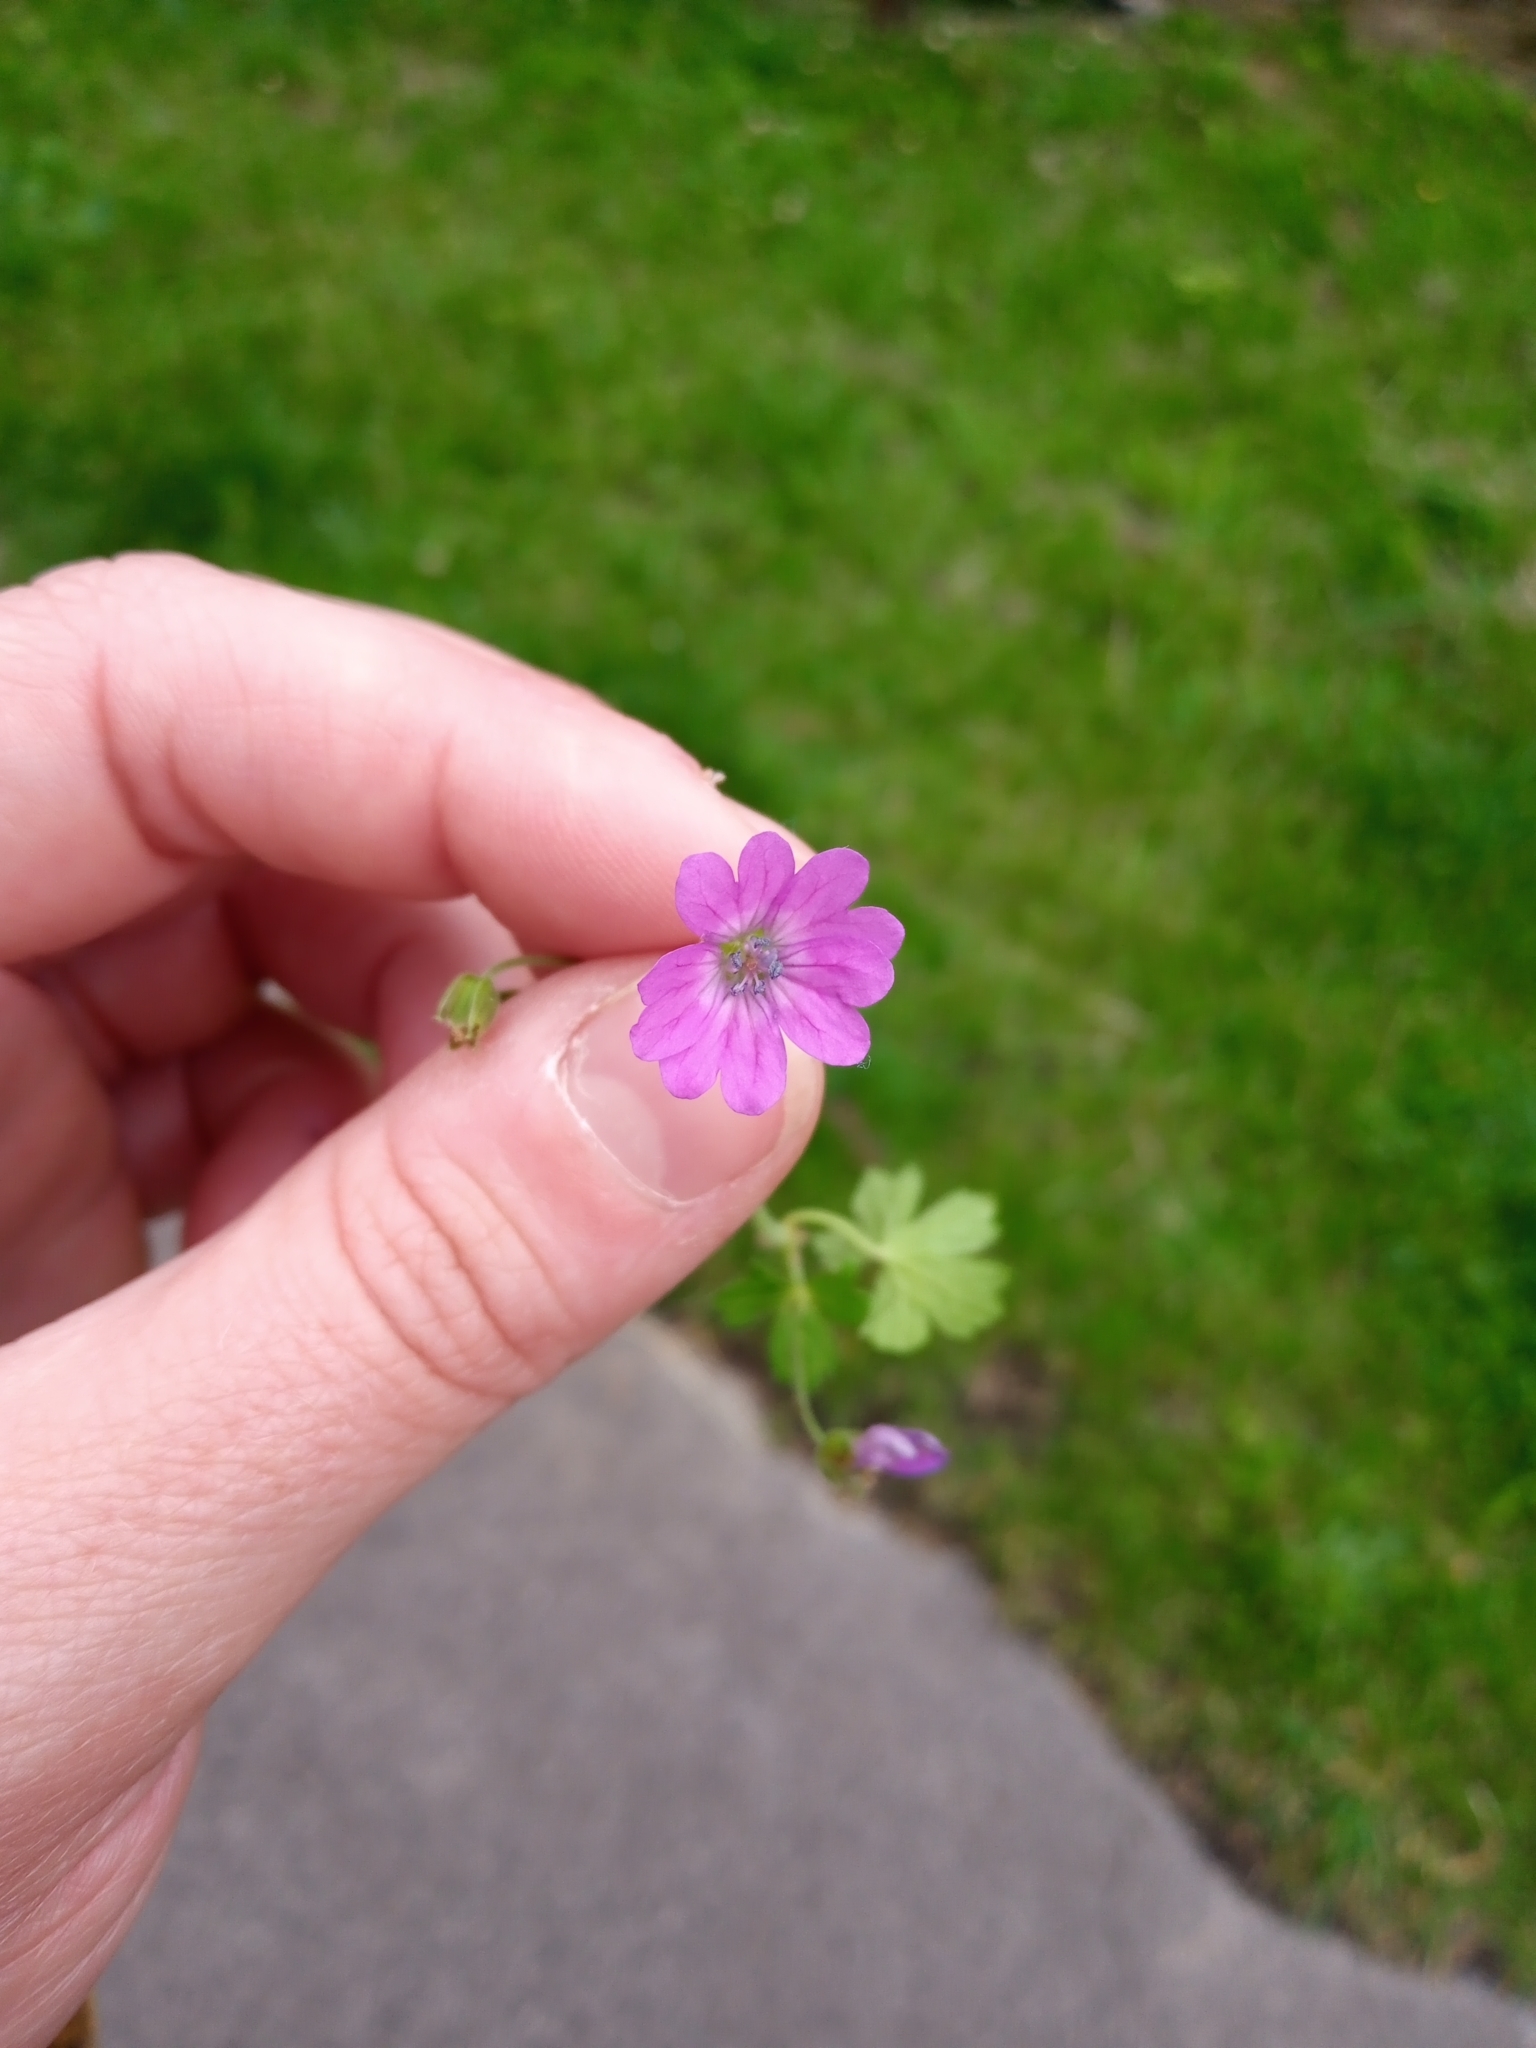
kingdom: Plantae
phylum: Tracheophyta
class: Magnoliopsida
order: Geraniales
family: Geraniaceae
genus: Geranium
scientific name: Geranium pyrenaicum
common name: Hedgerow crane's-bill
